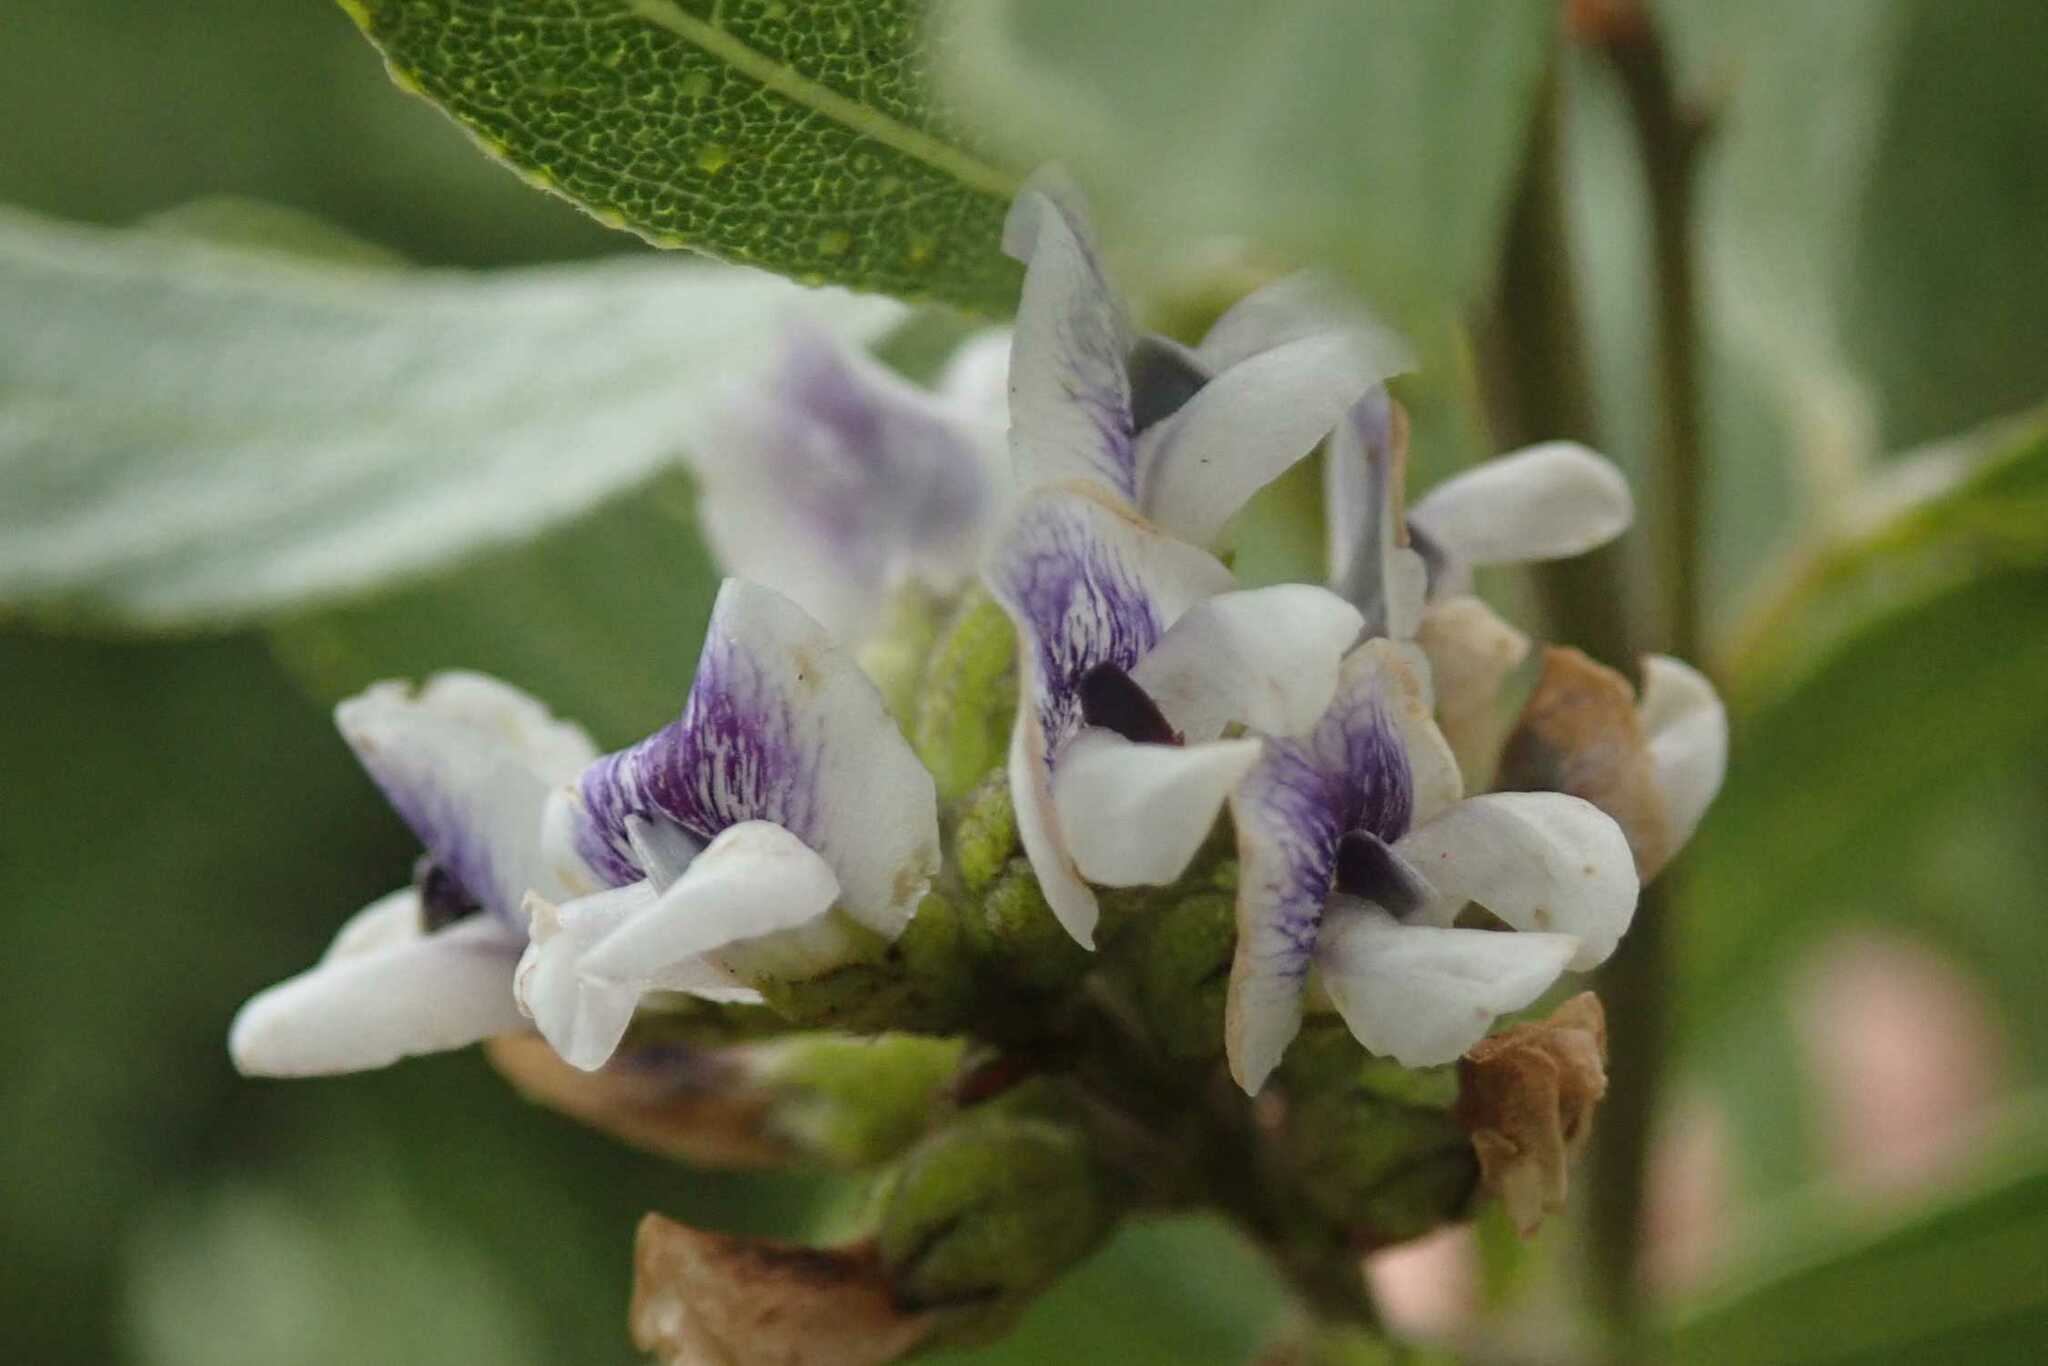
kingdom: Plantae
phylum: Tracheophyta
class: Magnoliopsida
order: Fabales
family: Fabaceae
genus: Psoralea
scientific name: Psoralea wilmsii
